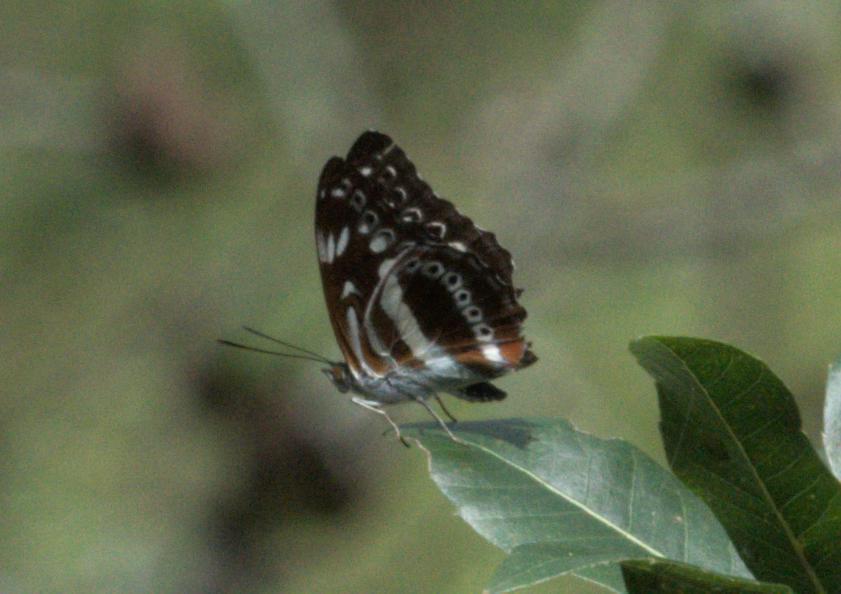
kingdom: Animalia
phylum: Arthropoda
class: Insecta
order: Lepidoptera
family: Nymphalidae
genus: Parathyma
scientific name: Parathyma asura
